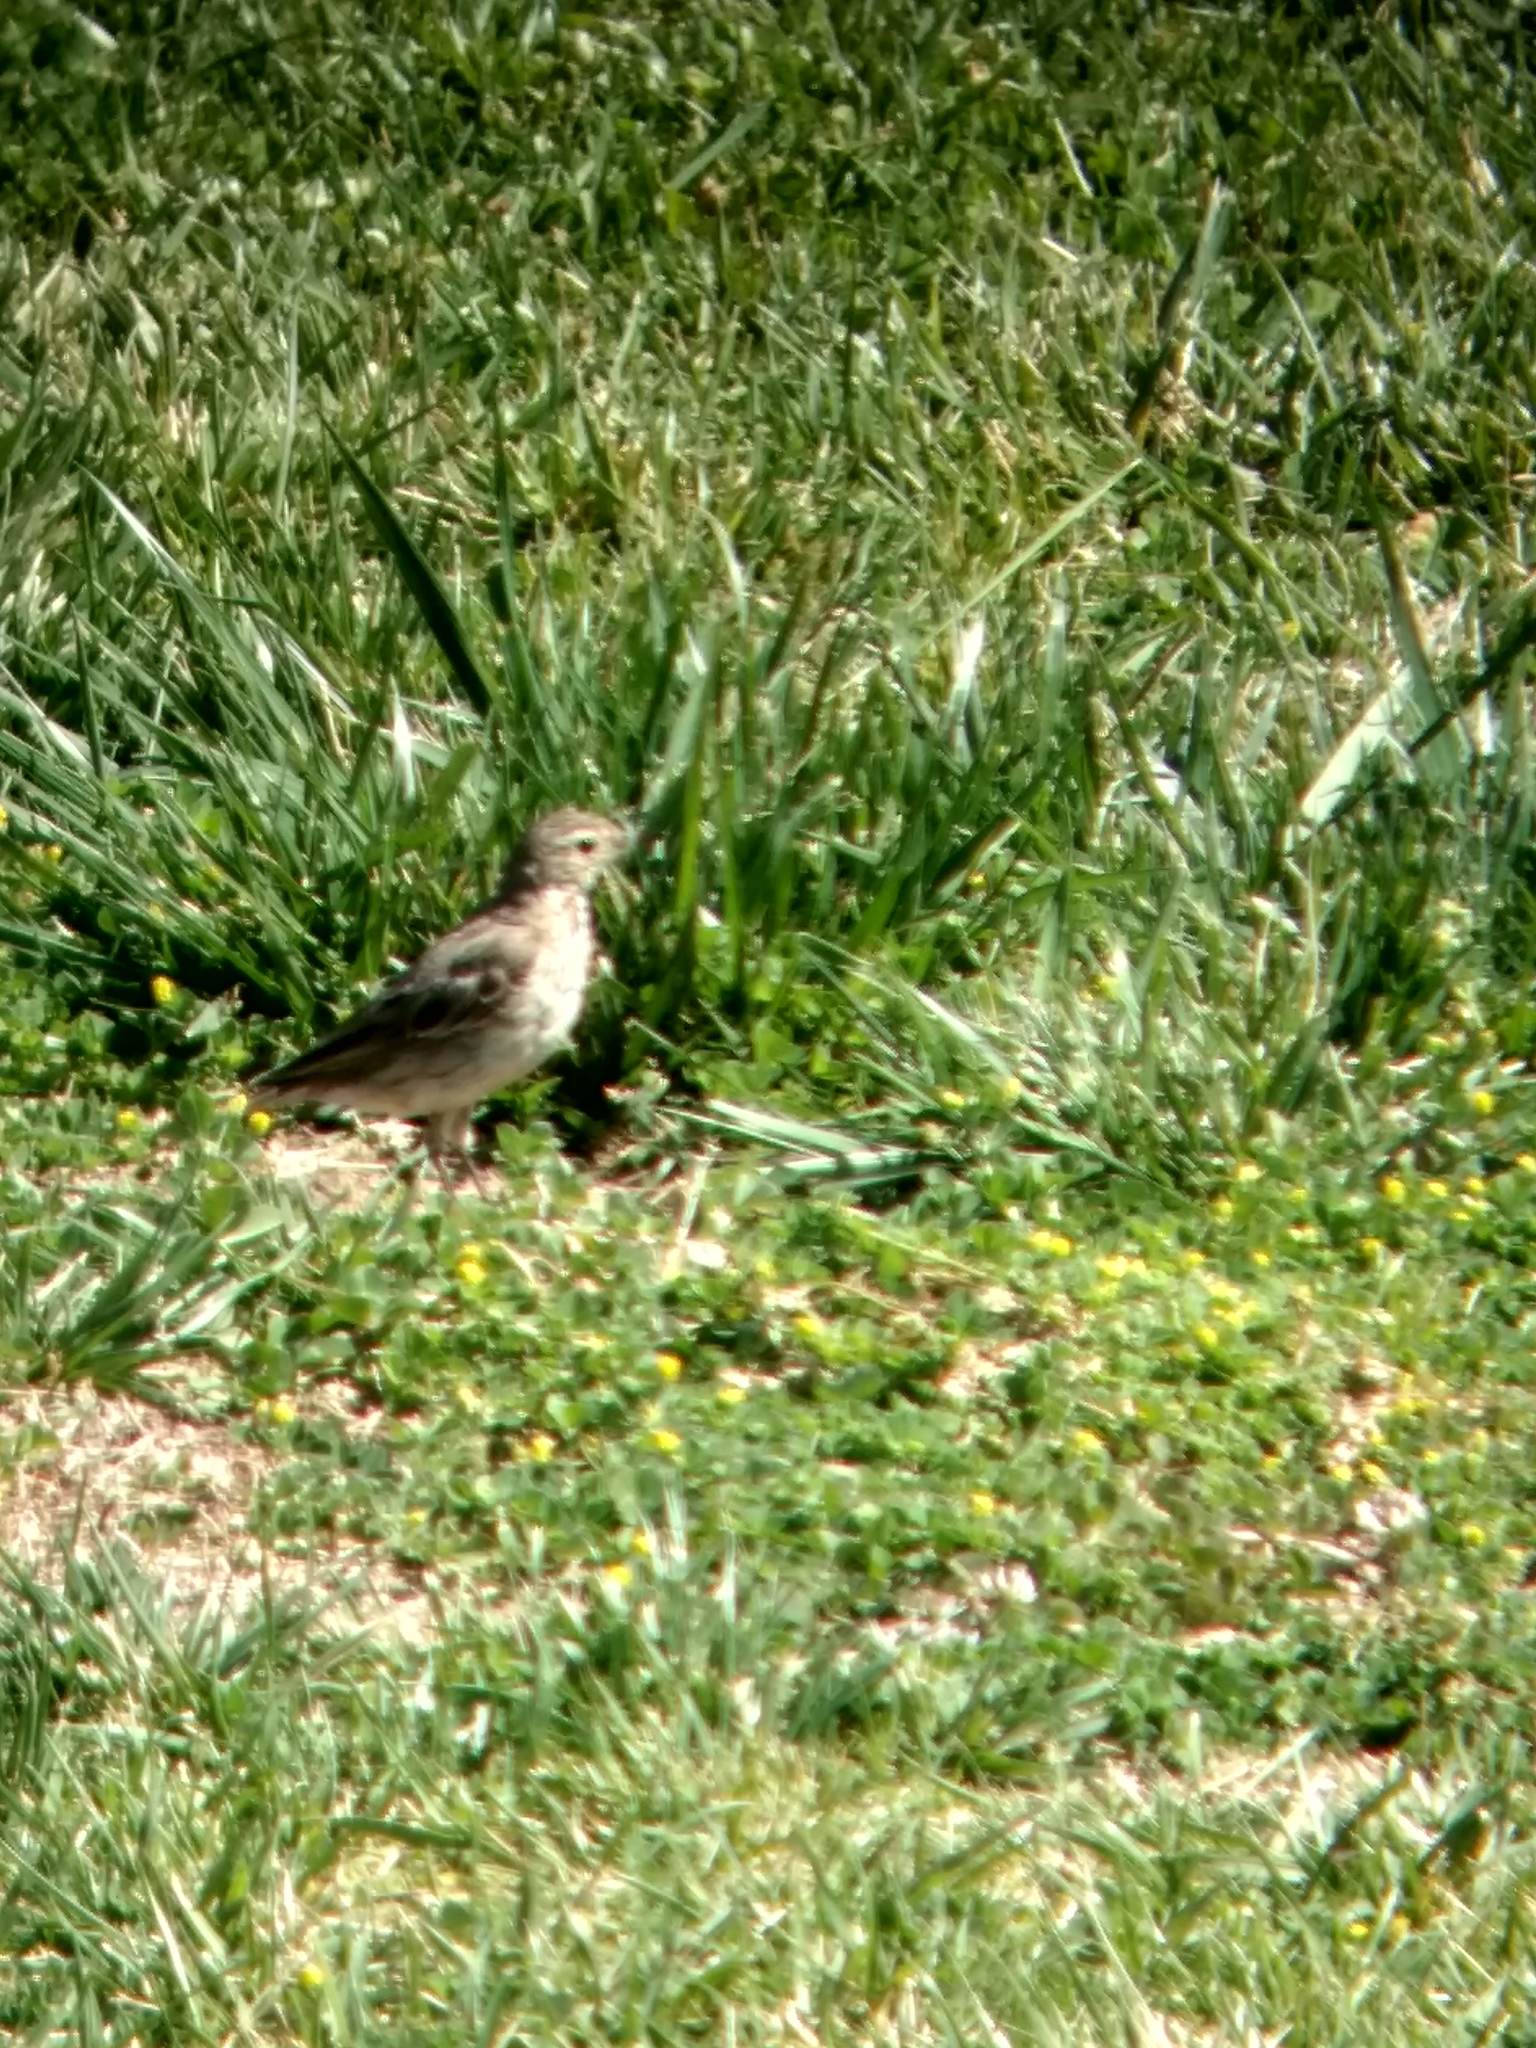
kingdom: Animalia
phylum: Chordata
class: Aves
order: Passeriformes
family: Motacillidae
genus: Anthus
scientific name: Anthus rubescens
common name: Buff-bellied pipit
